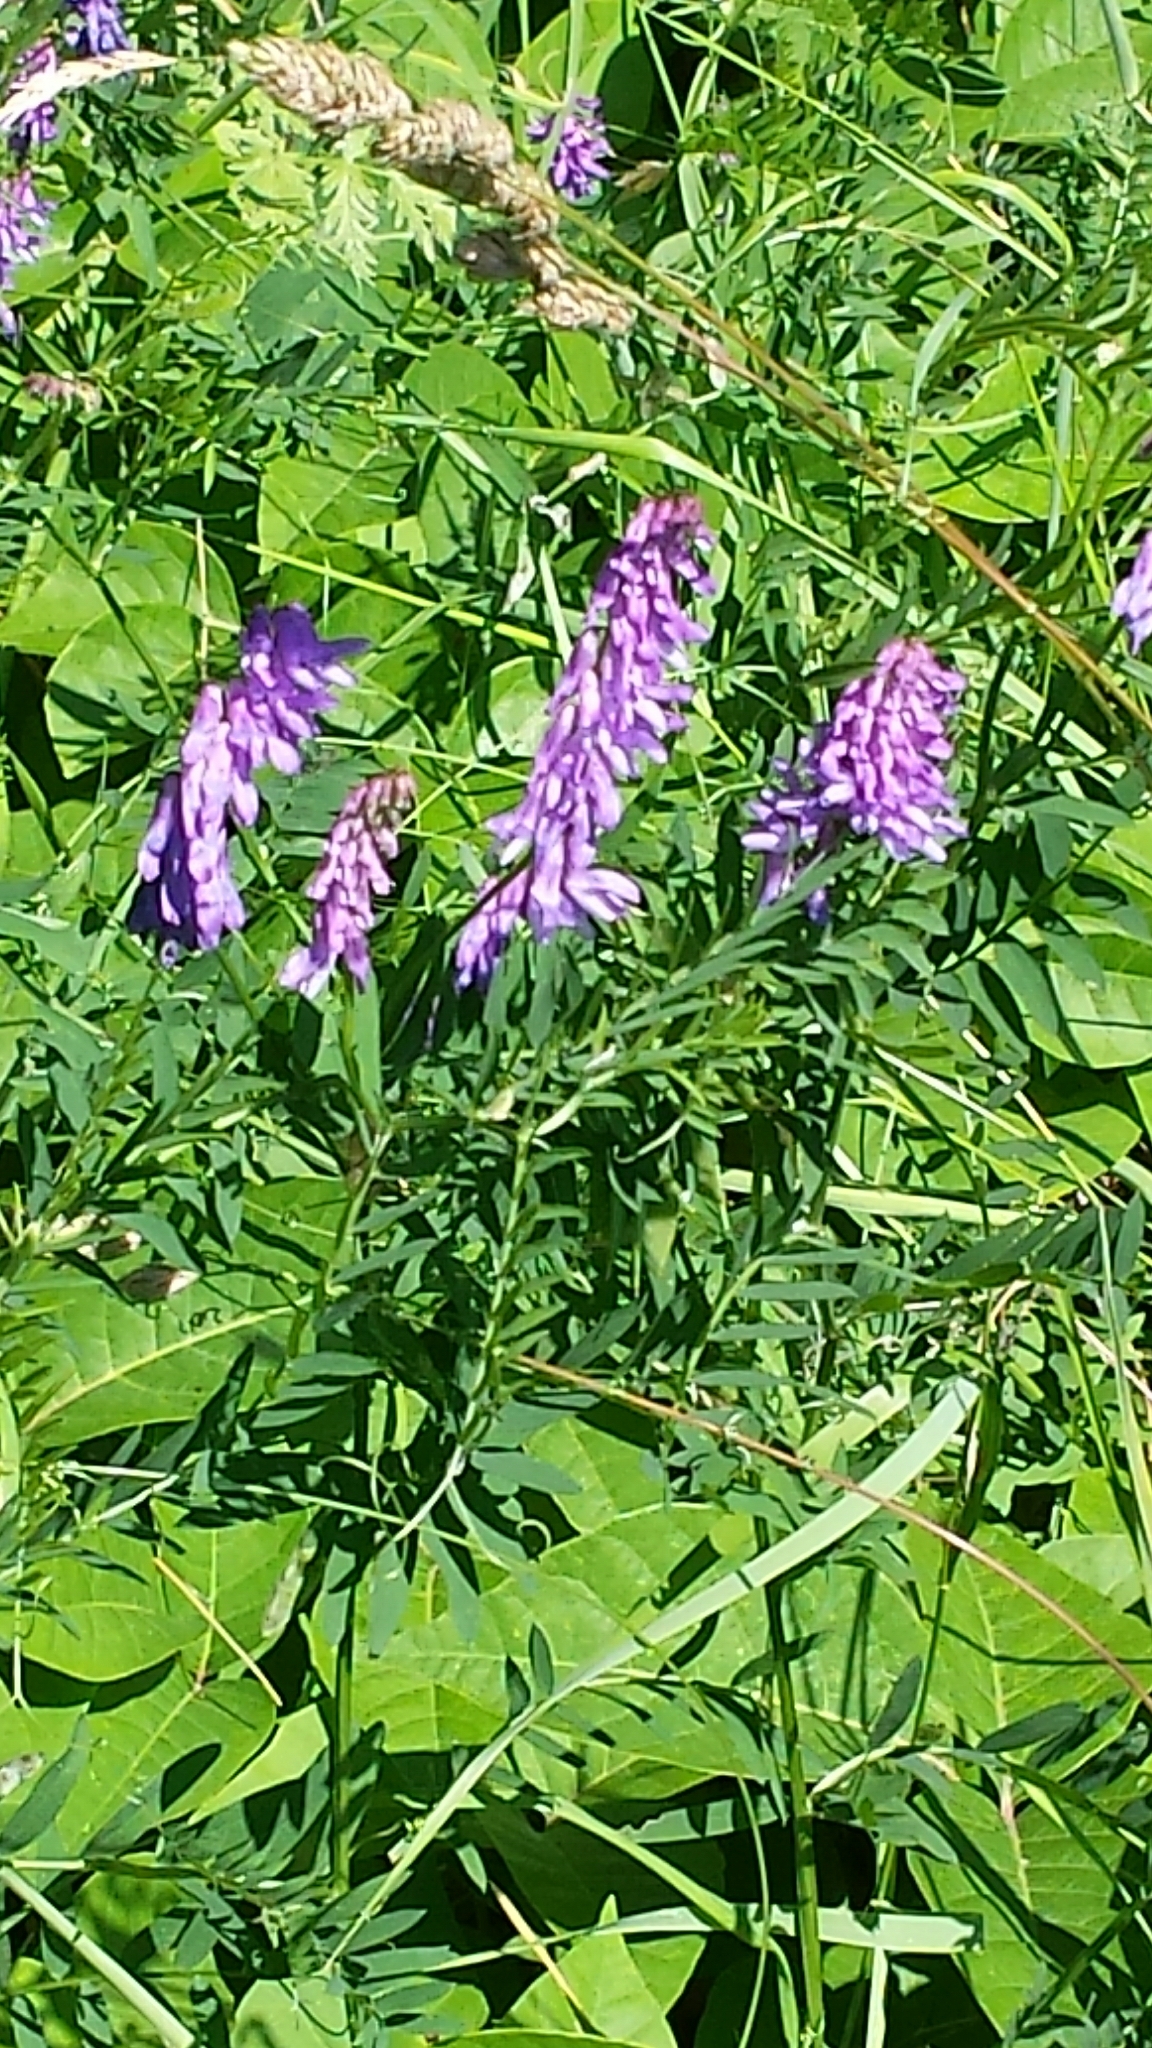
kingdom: Plantae
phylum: Tracheophyta
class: Magnoliopsida
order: Fabales
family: Fabaceae
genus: Vicia
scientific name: Vicia cracca
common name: Bird vetch
